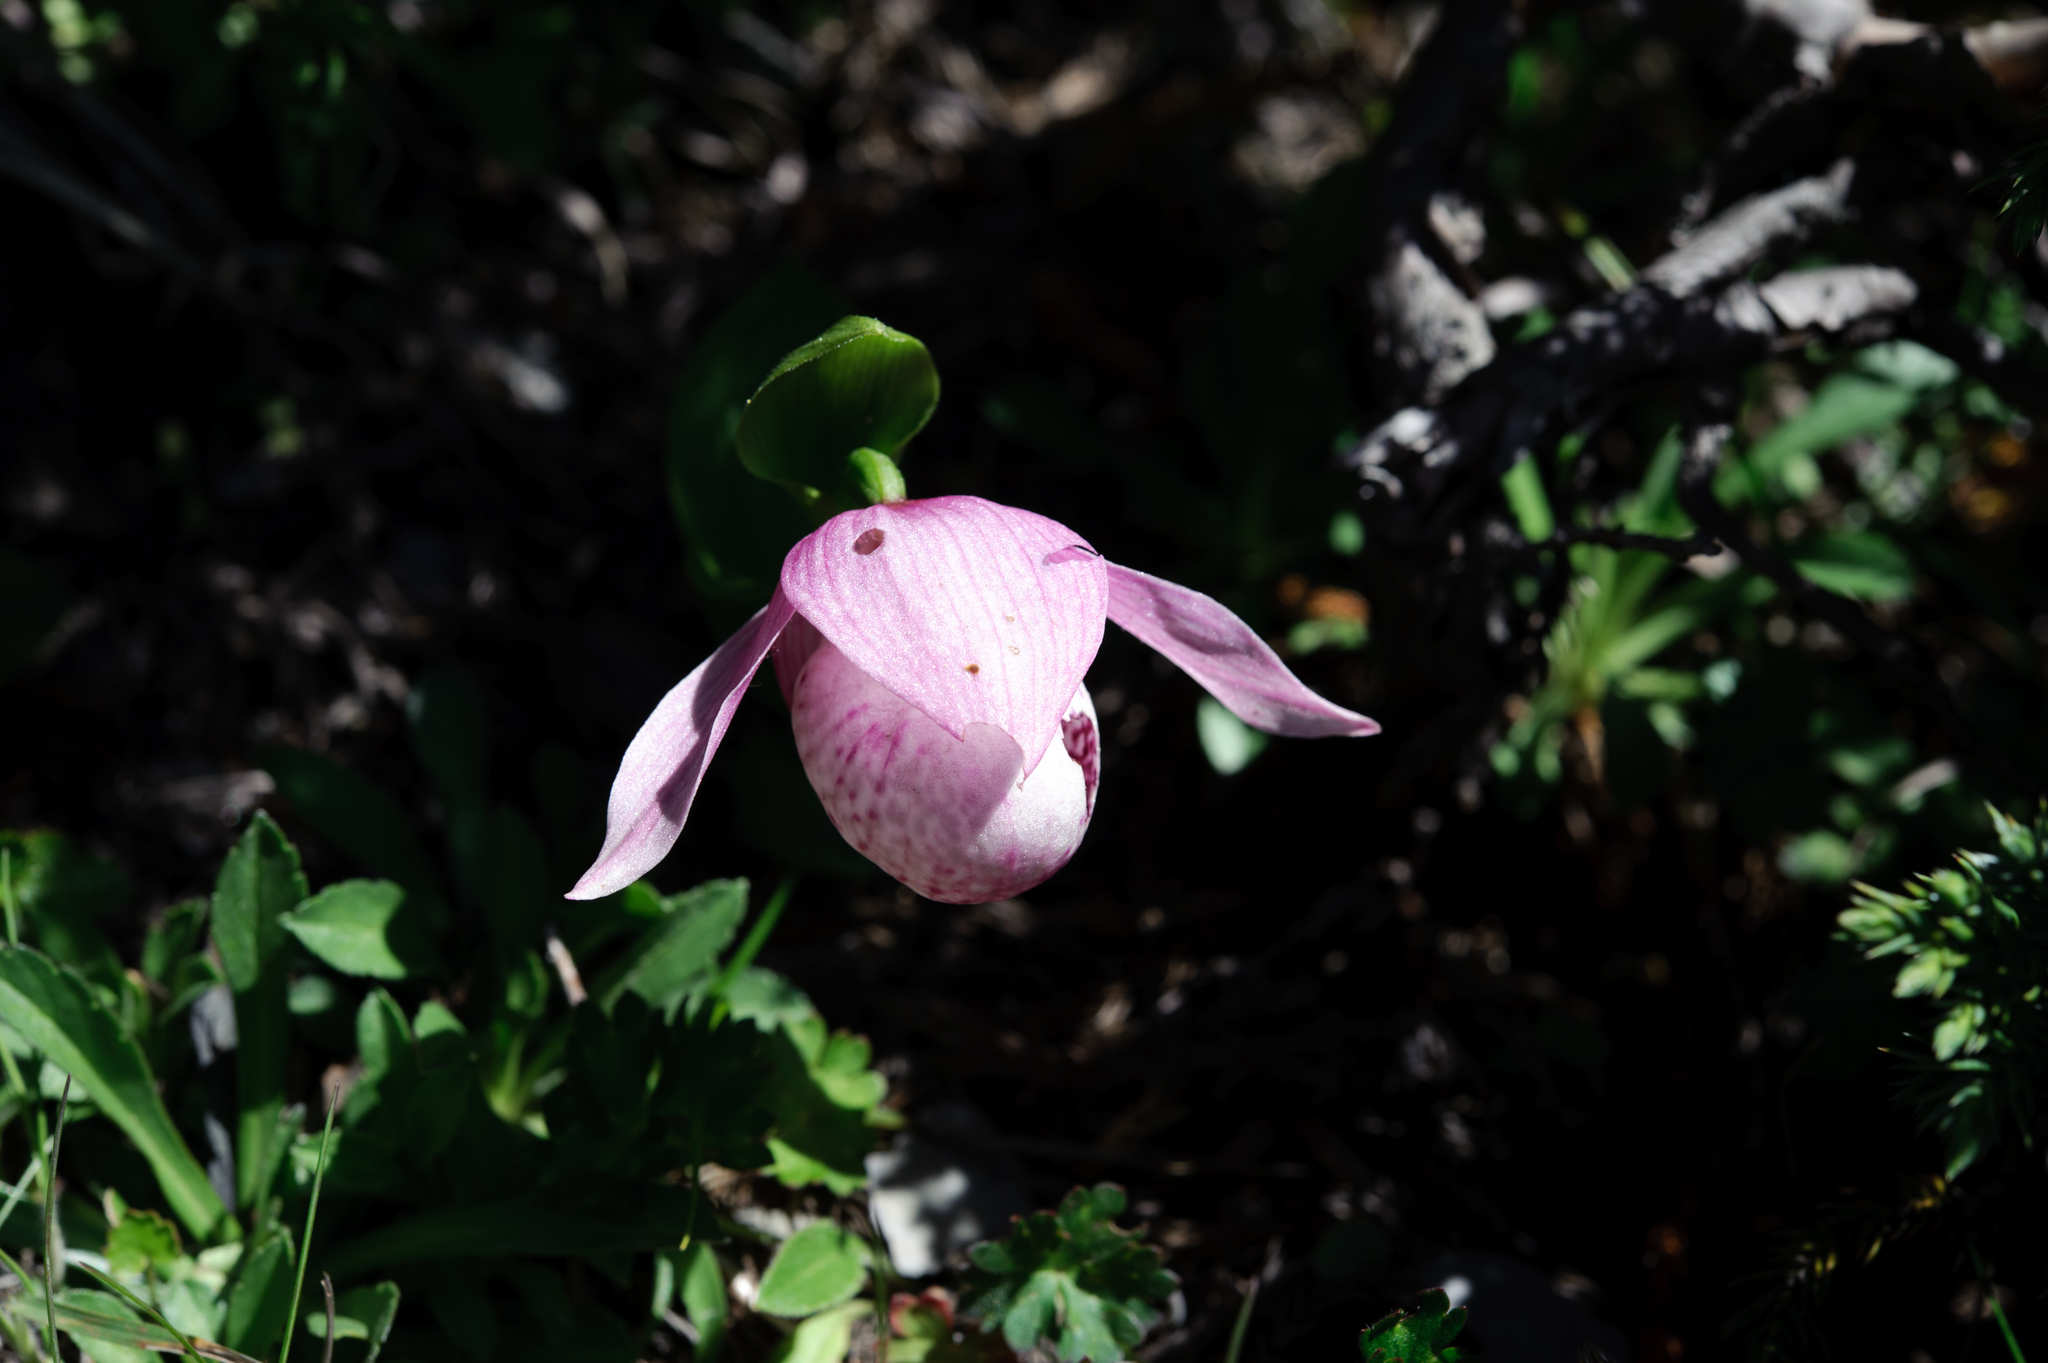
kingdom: Plantae
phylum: Tracheophyta
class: Liliopsida
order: Asparagales
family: Orchidaceae
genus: Cypripedium
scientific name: Cypripedium taiwanalpinum
